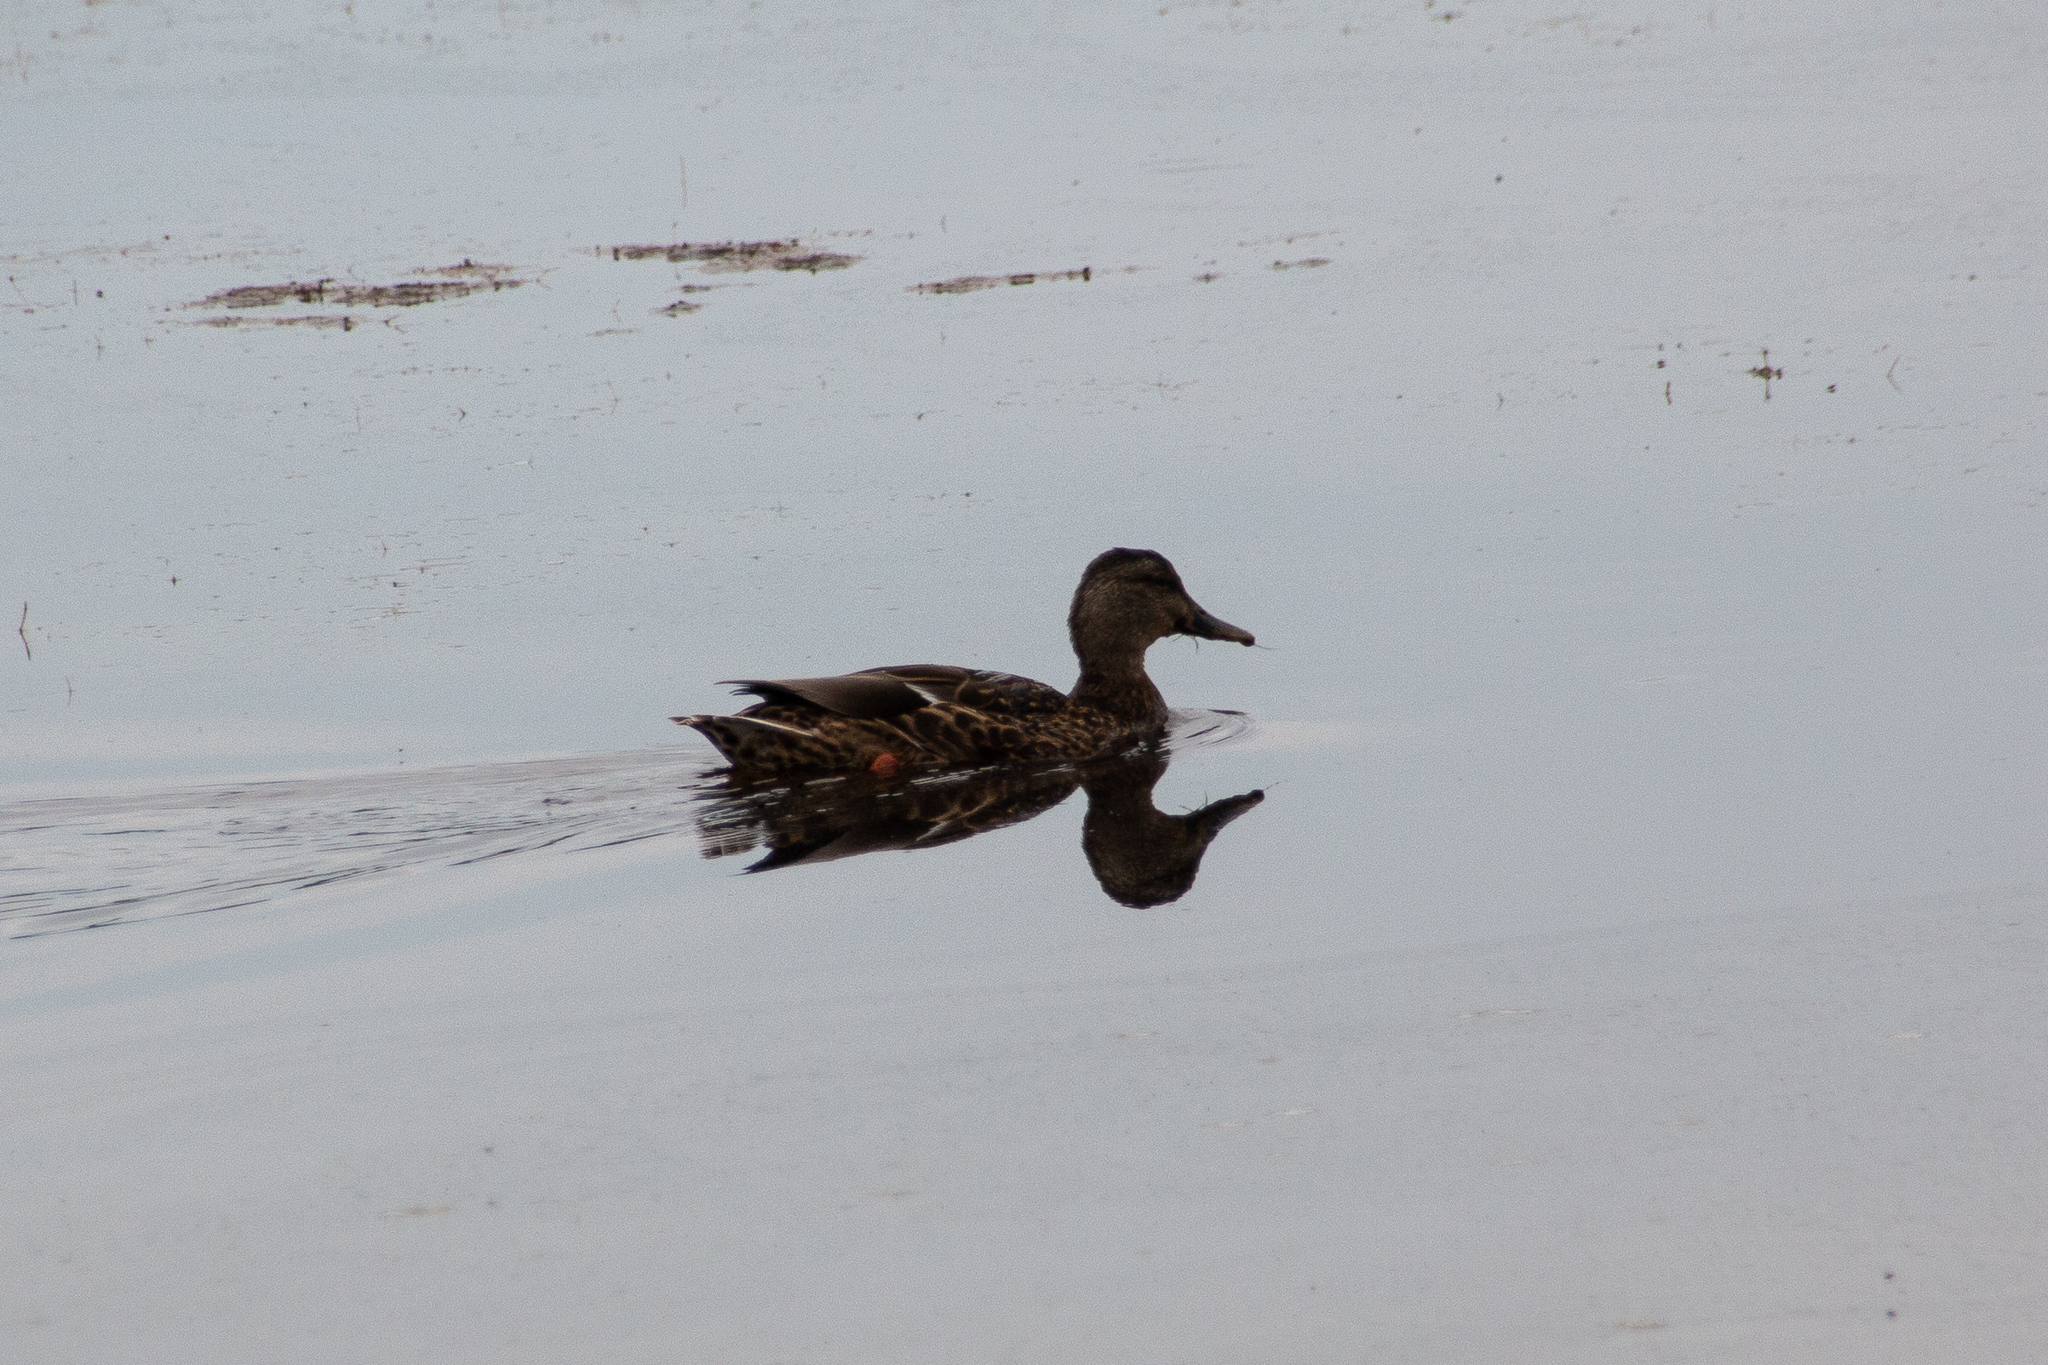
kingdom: Animalia
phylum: Chordata
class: Aves
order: Anseriformes
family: Anatidae
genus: Anas
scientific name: Anas platyrhynchos
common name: Mallard
